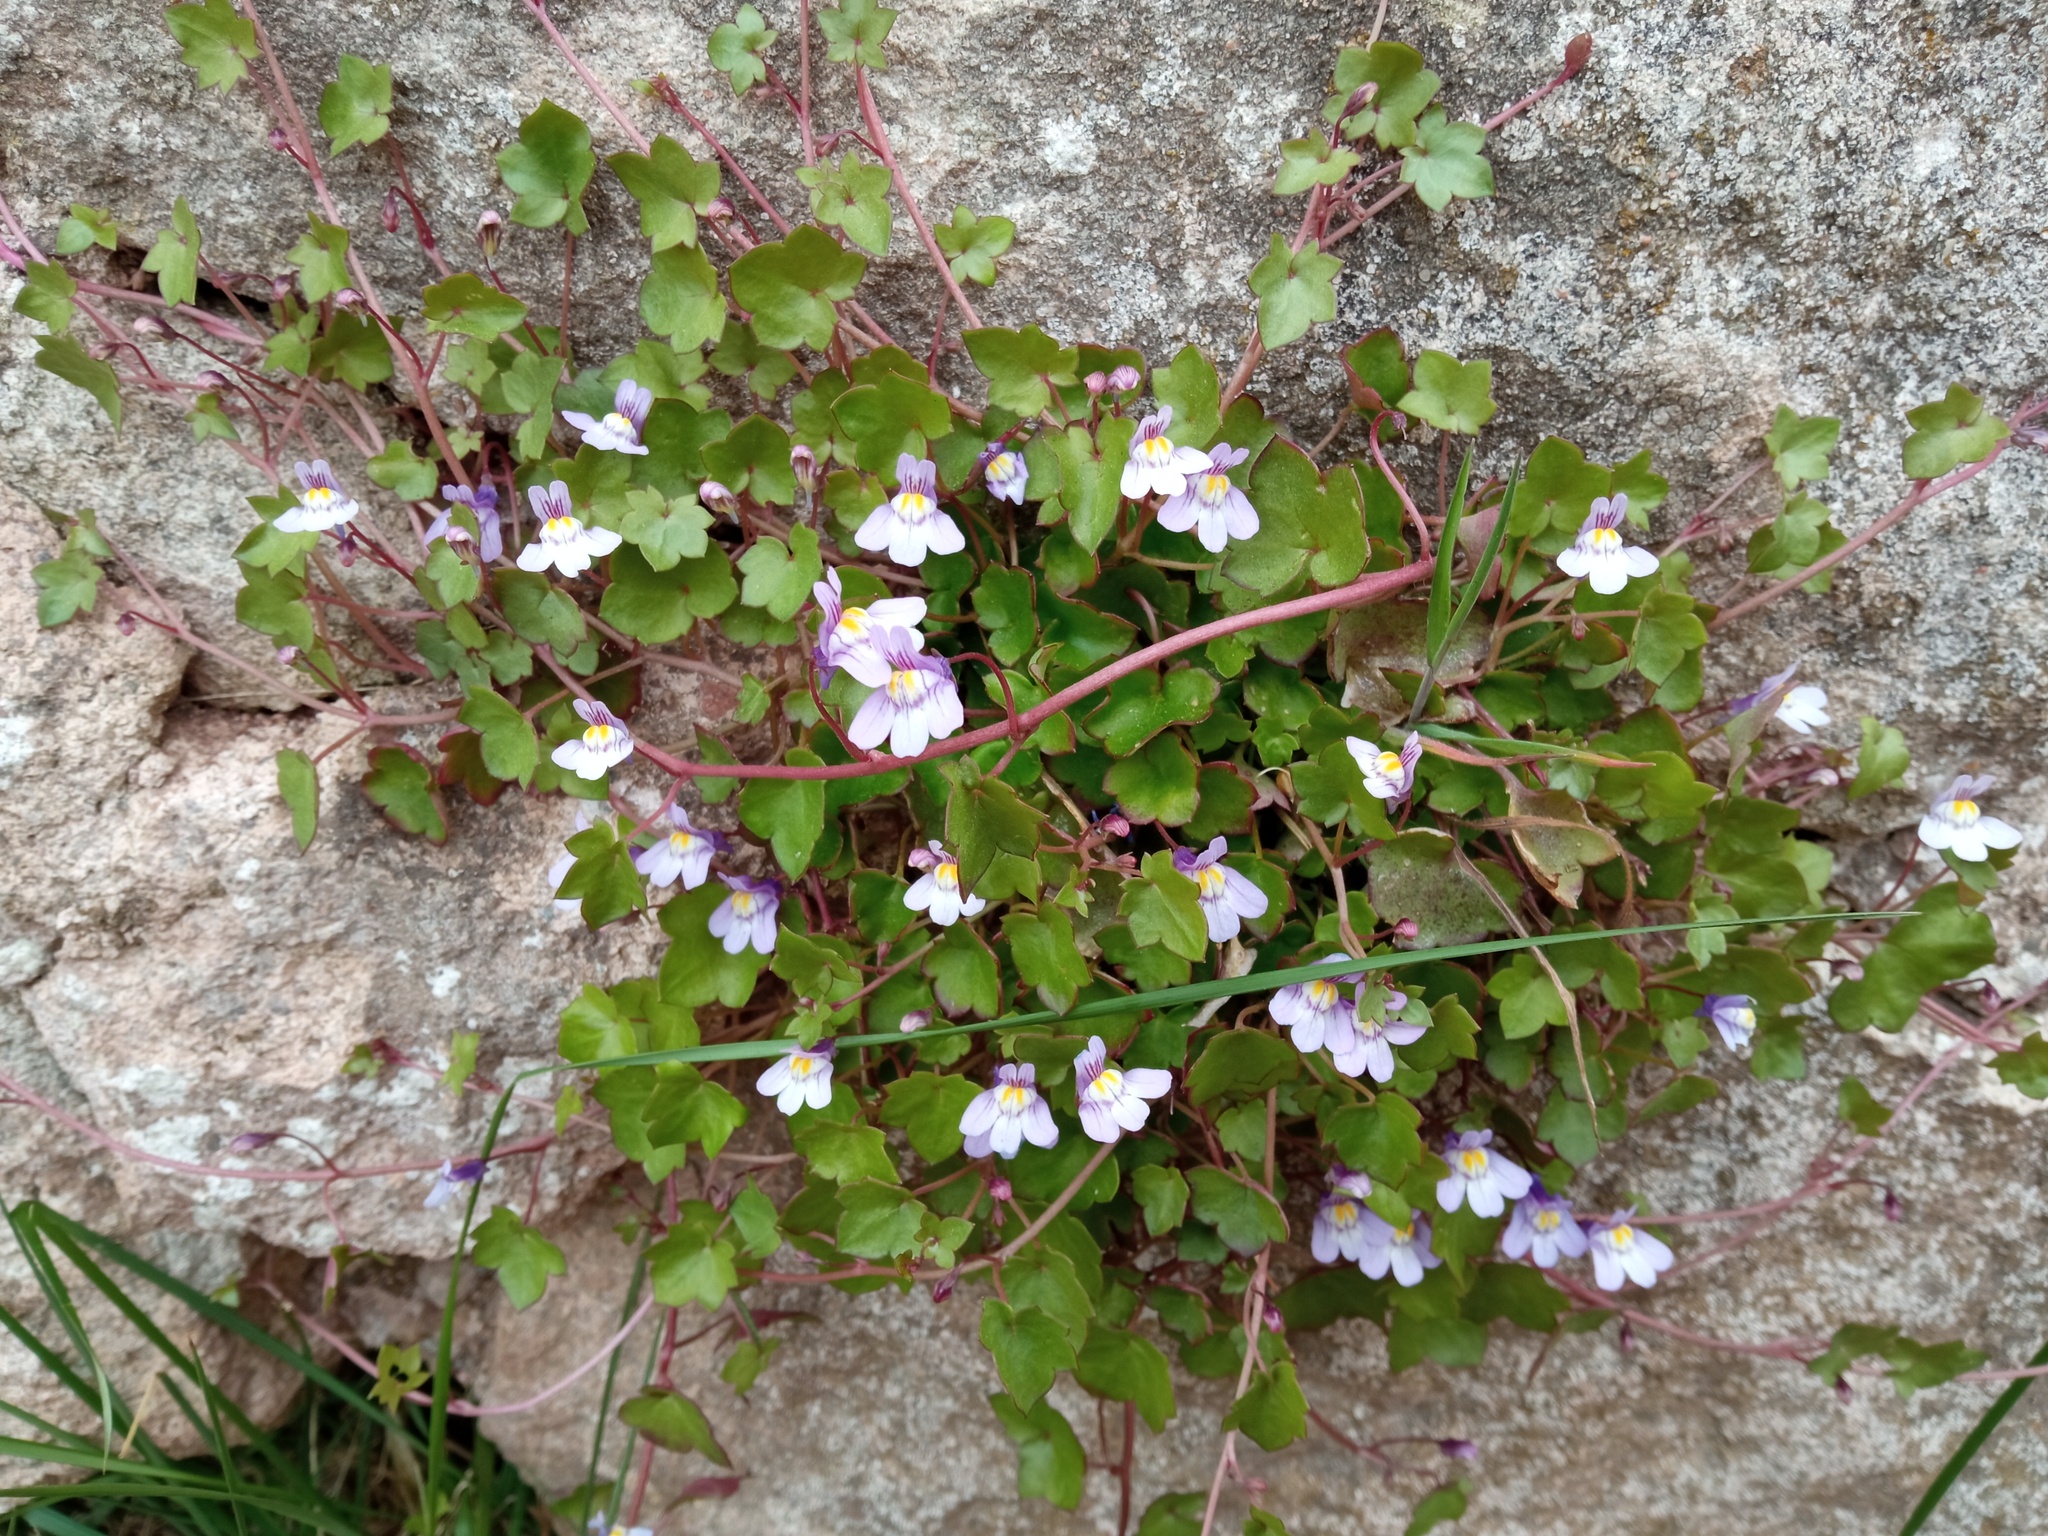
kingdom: Plantae
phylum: Tracheophyta
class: Magnoliopsida
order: Lamiales
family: Plantaginaceae
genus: Cymbalaria
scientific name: Cymbalaria muralis
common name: Ivy-leaved toadflax
